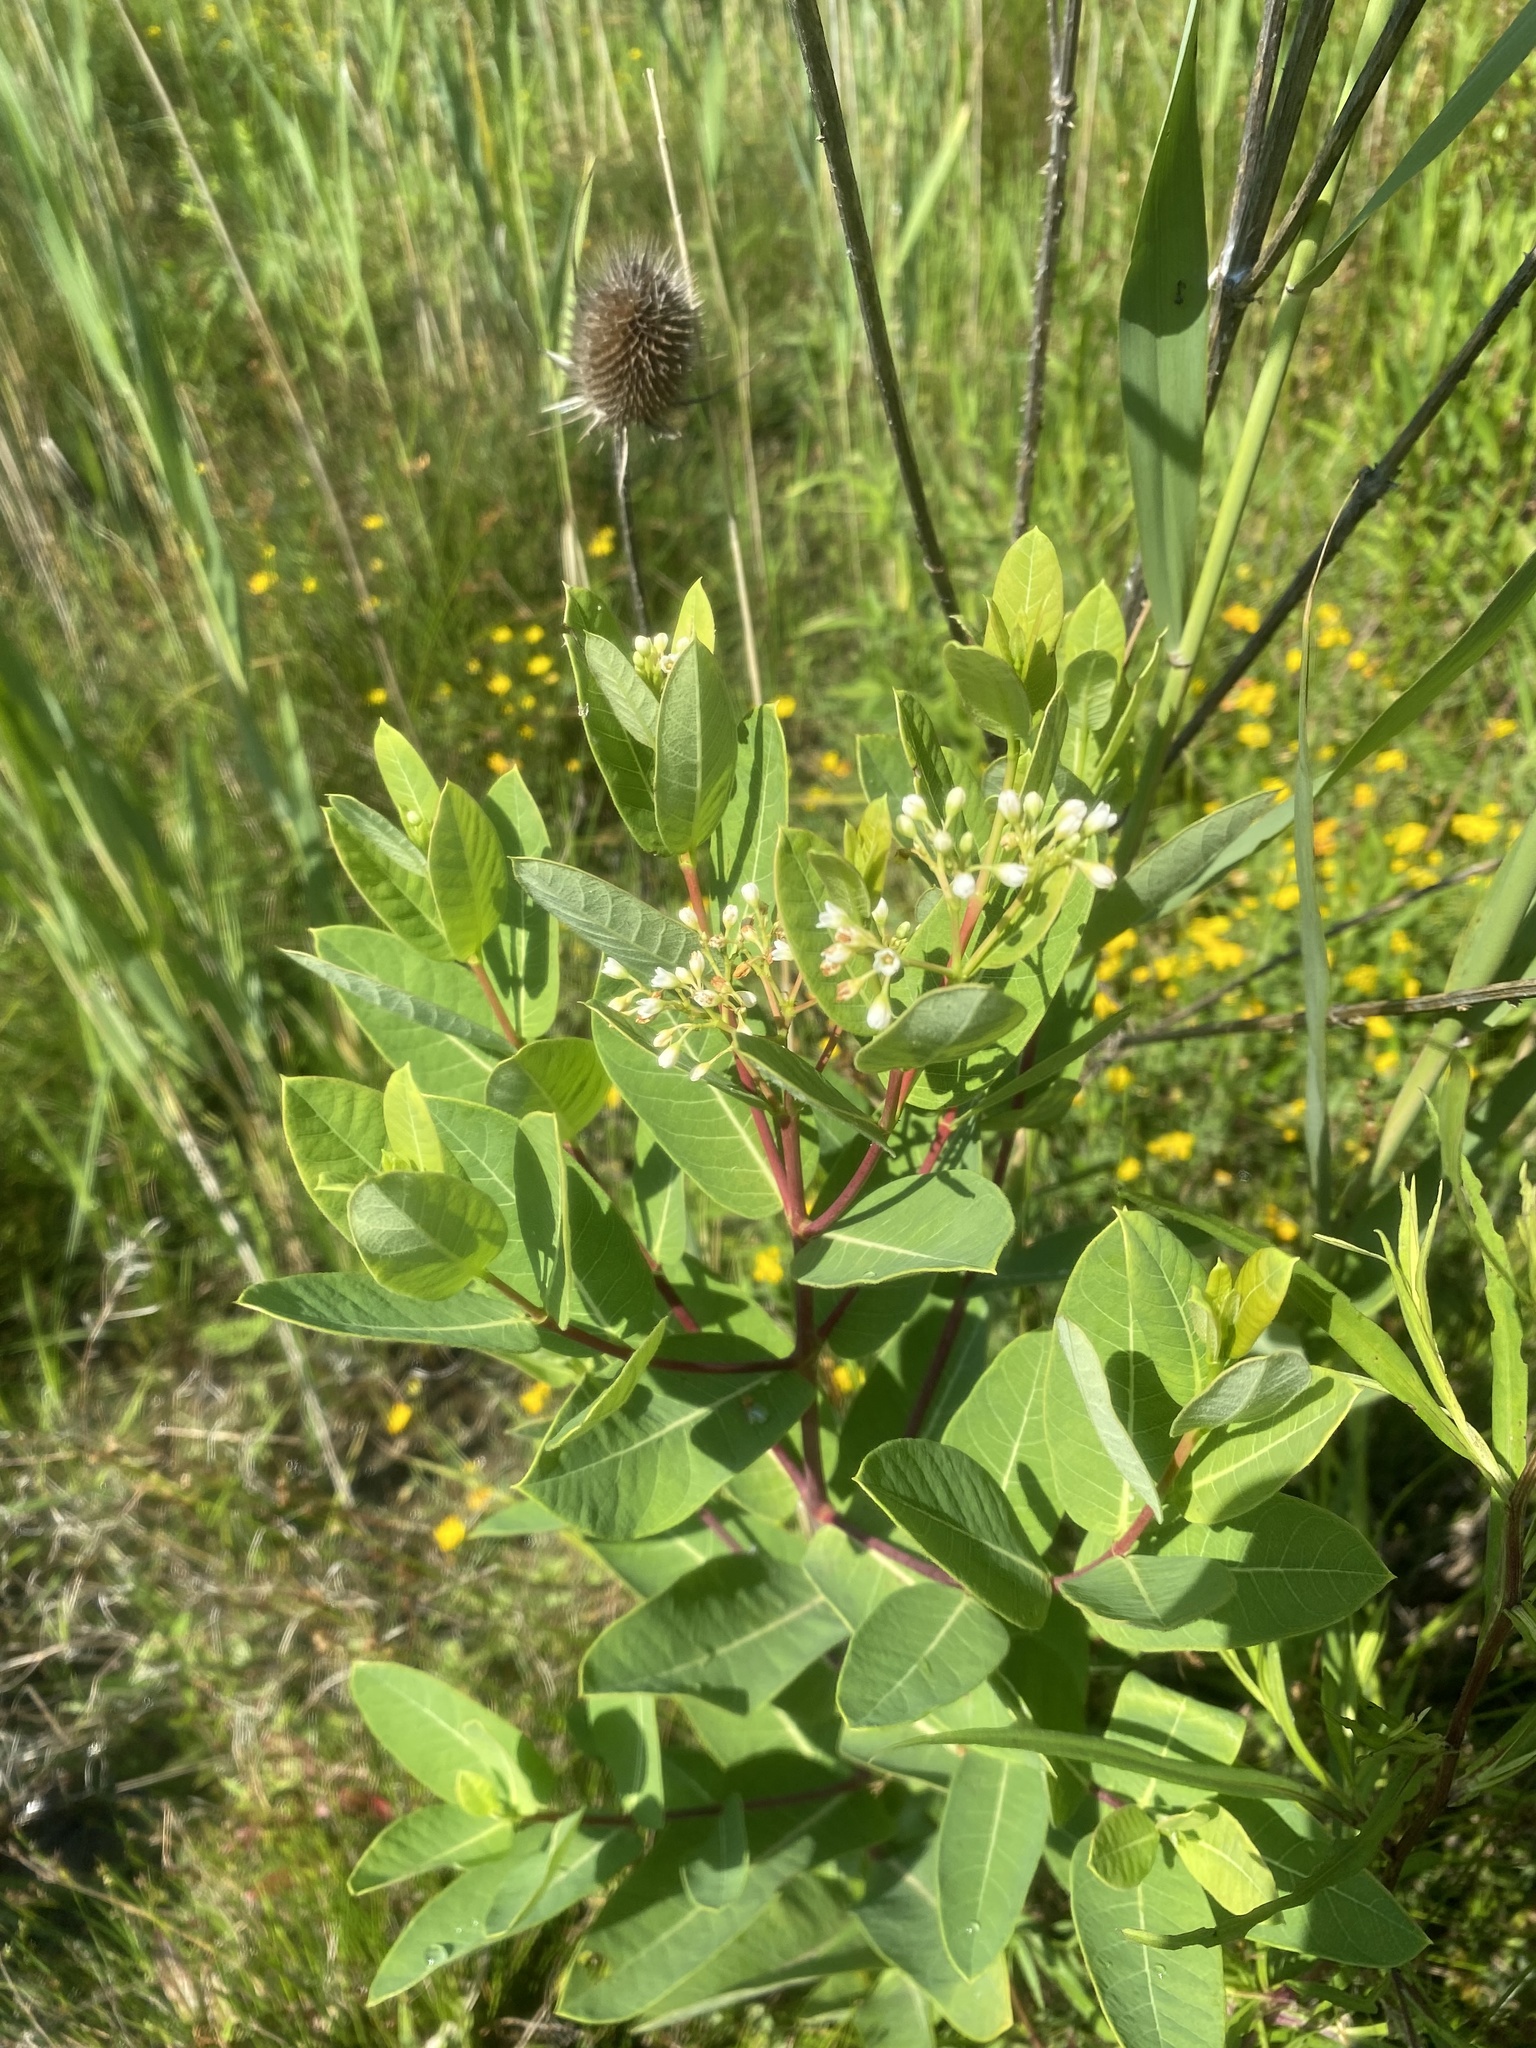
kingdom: Plantae
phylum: Tracheophyta
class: Magnoliopsida
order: Gentianales
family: Apocynaceae
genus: Apocynum
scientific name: Apocynum cannabinum
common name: Hemp dogbane
